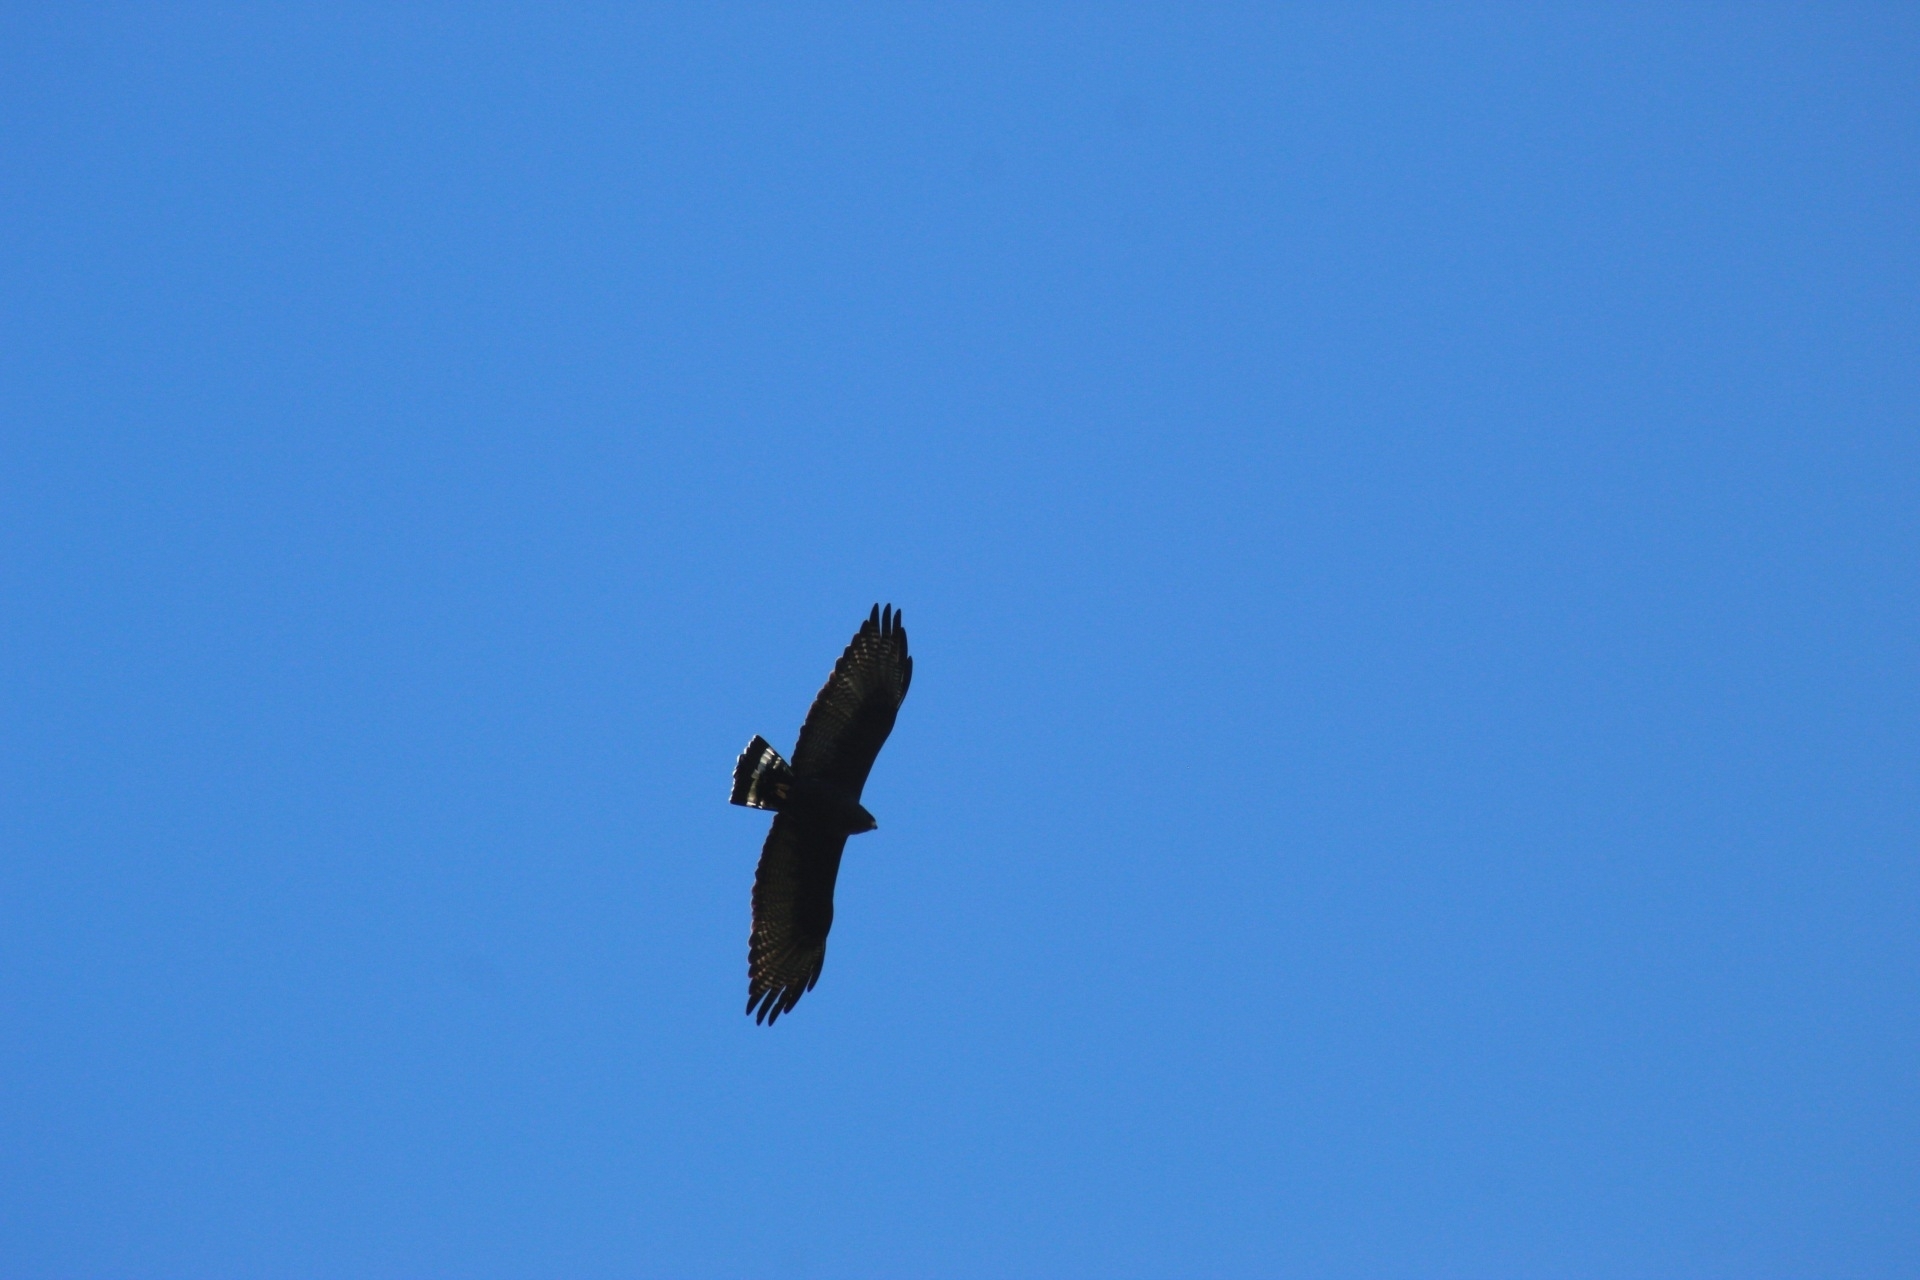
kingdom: Animalia
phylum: Chordata
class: Aves
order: Accipitriformes
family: Accipitridae
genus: Buteo
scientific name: Buteo albonotatus
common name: Zone-tailed hawk
